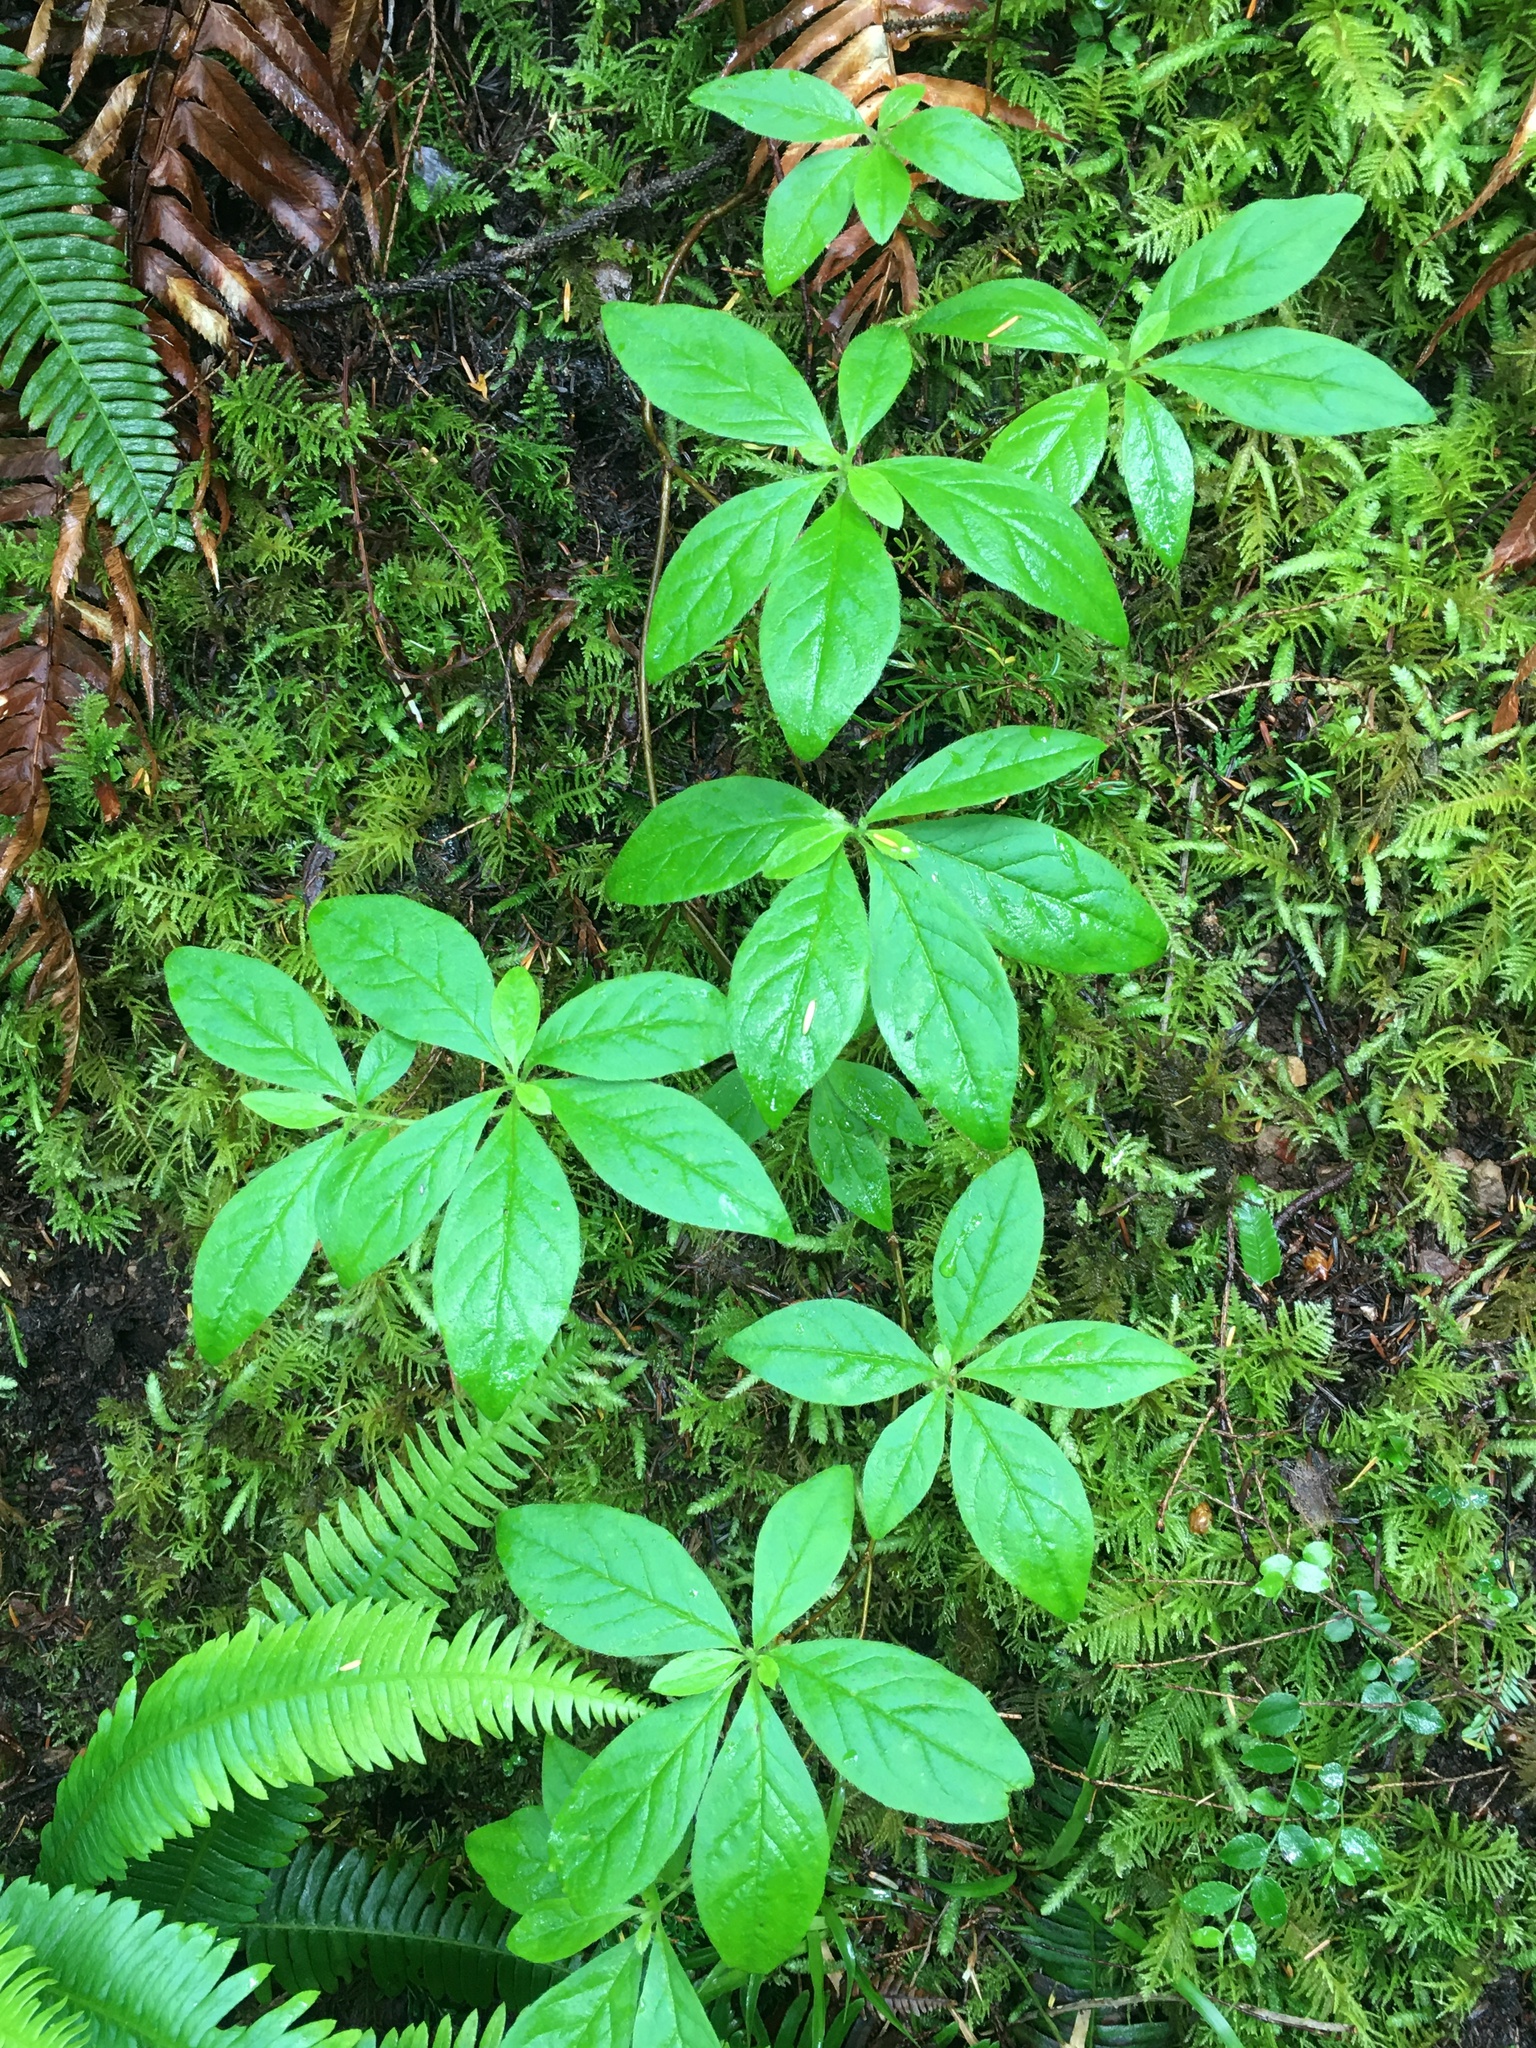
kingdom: Plantae
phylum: Tracheophyta
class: Magnoliopsida
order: Ericales
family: Ericaceae
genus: Rhododendron
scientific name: Rhododendron menziesii
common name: Pacific menziesia
